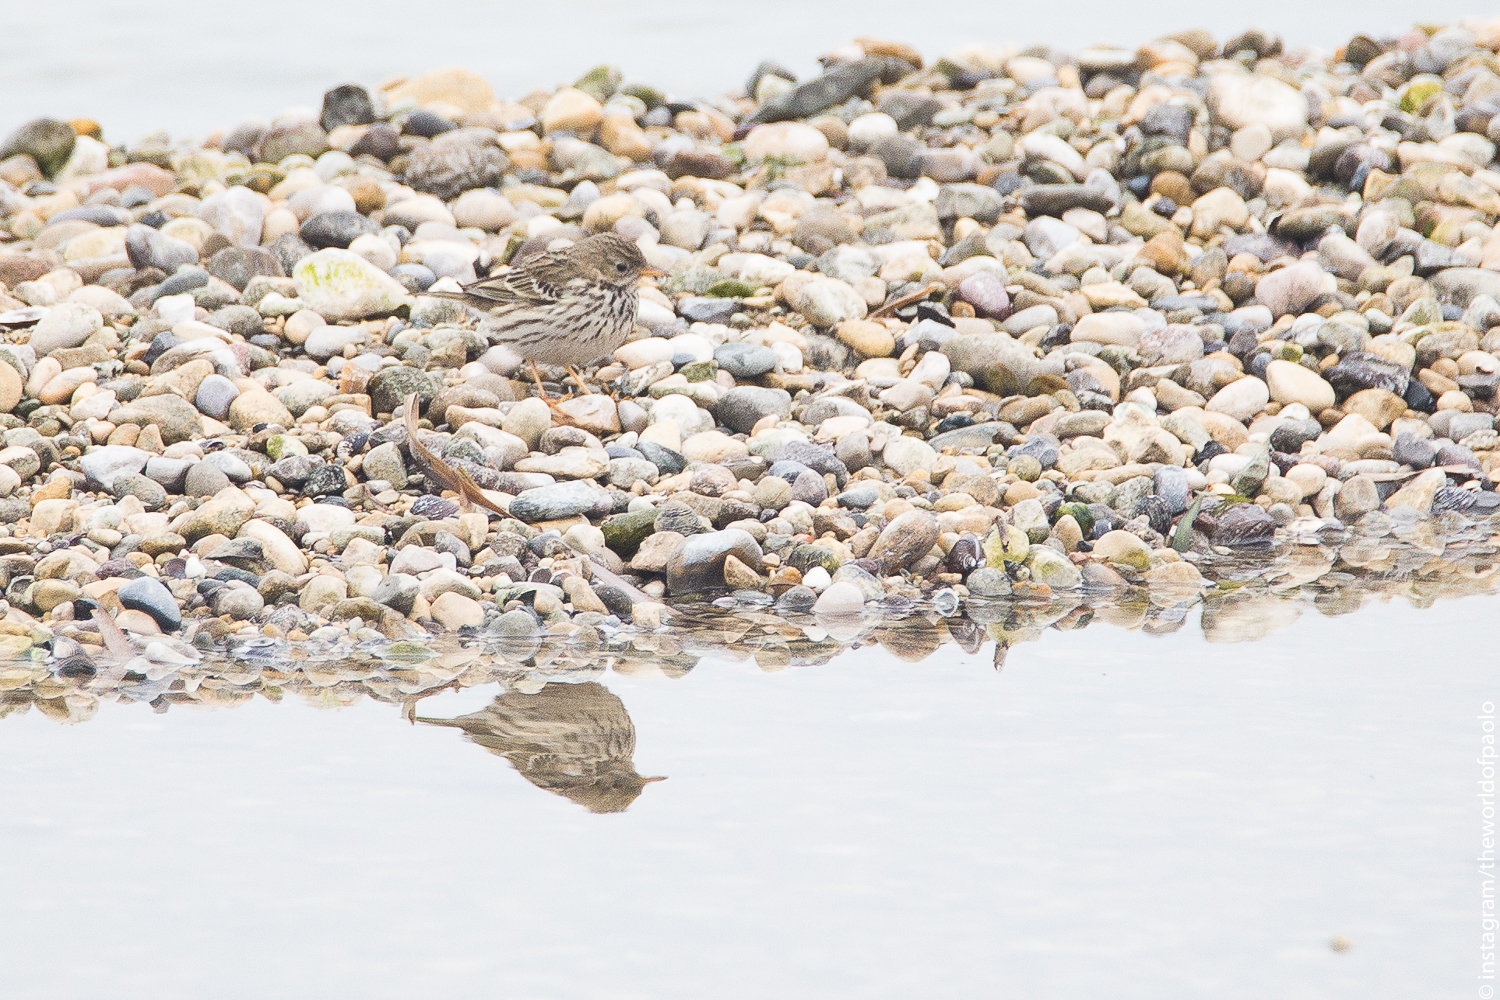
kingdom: Animalia
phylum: Chordata
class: Aves
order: Passeriformes
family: Motacillidae
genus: Anthus
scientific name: Anthus pratensis
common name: Meadow pipit
